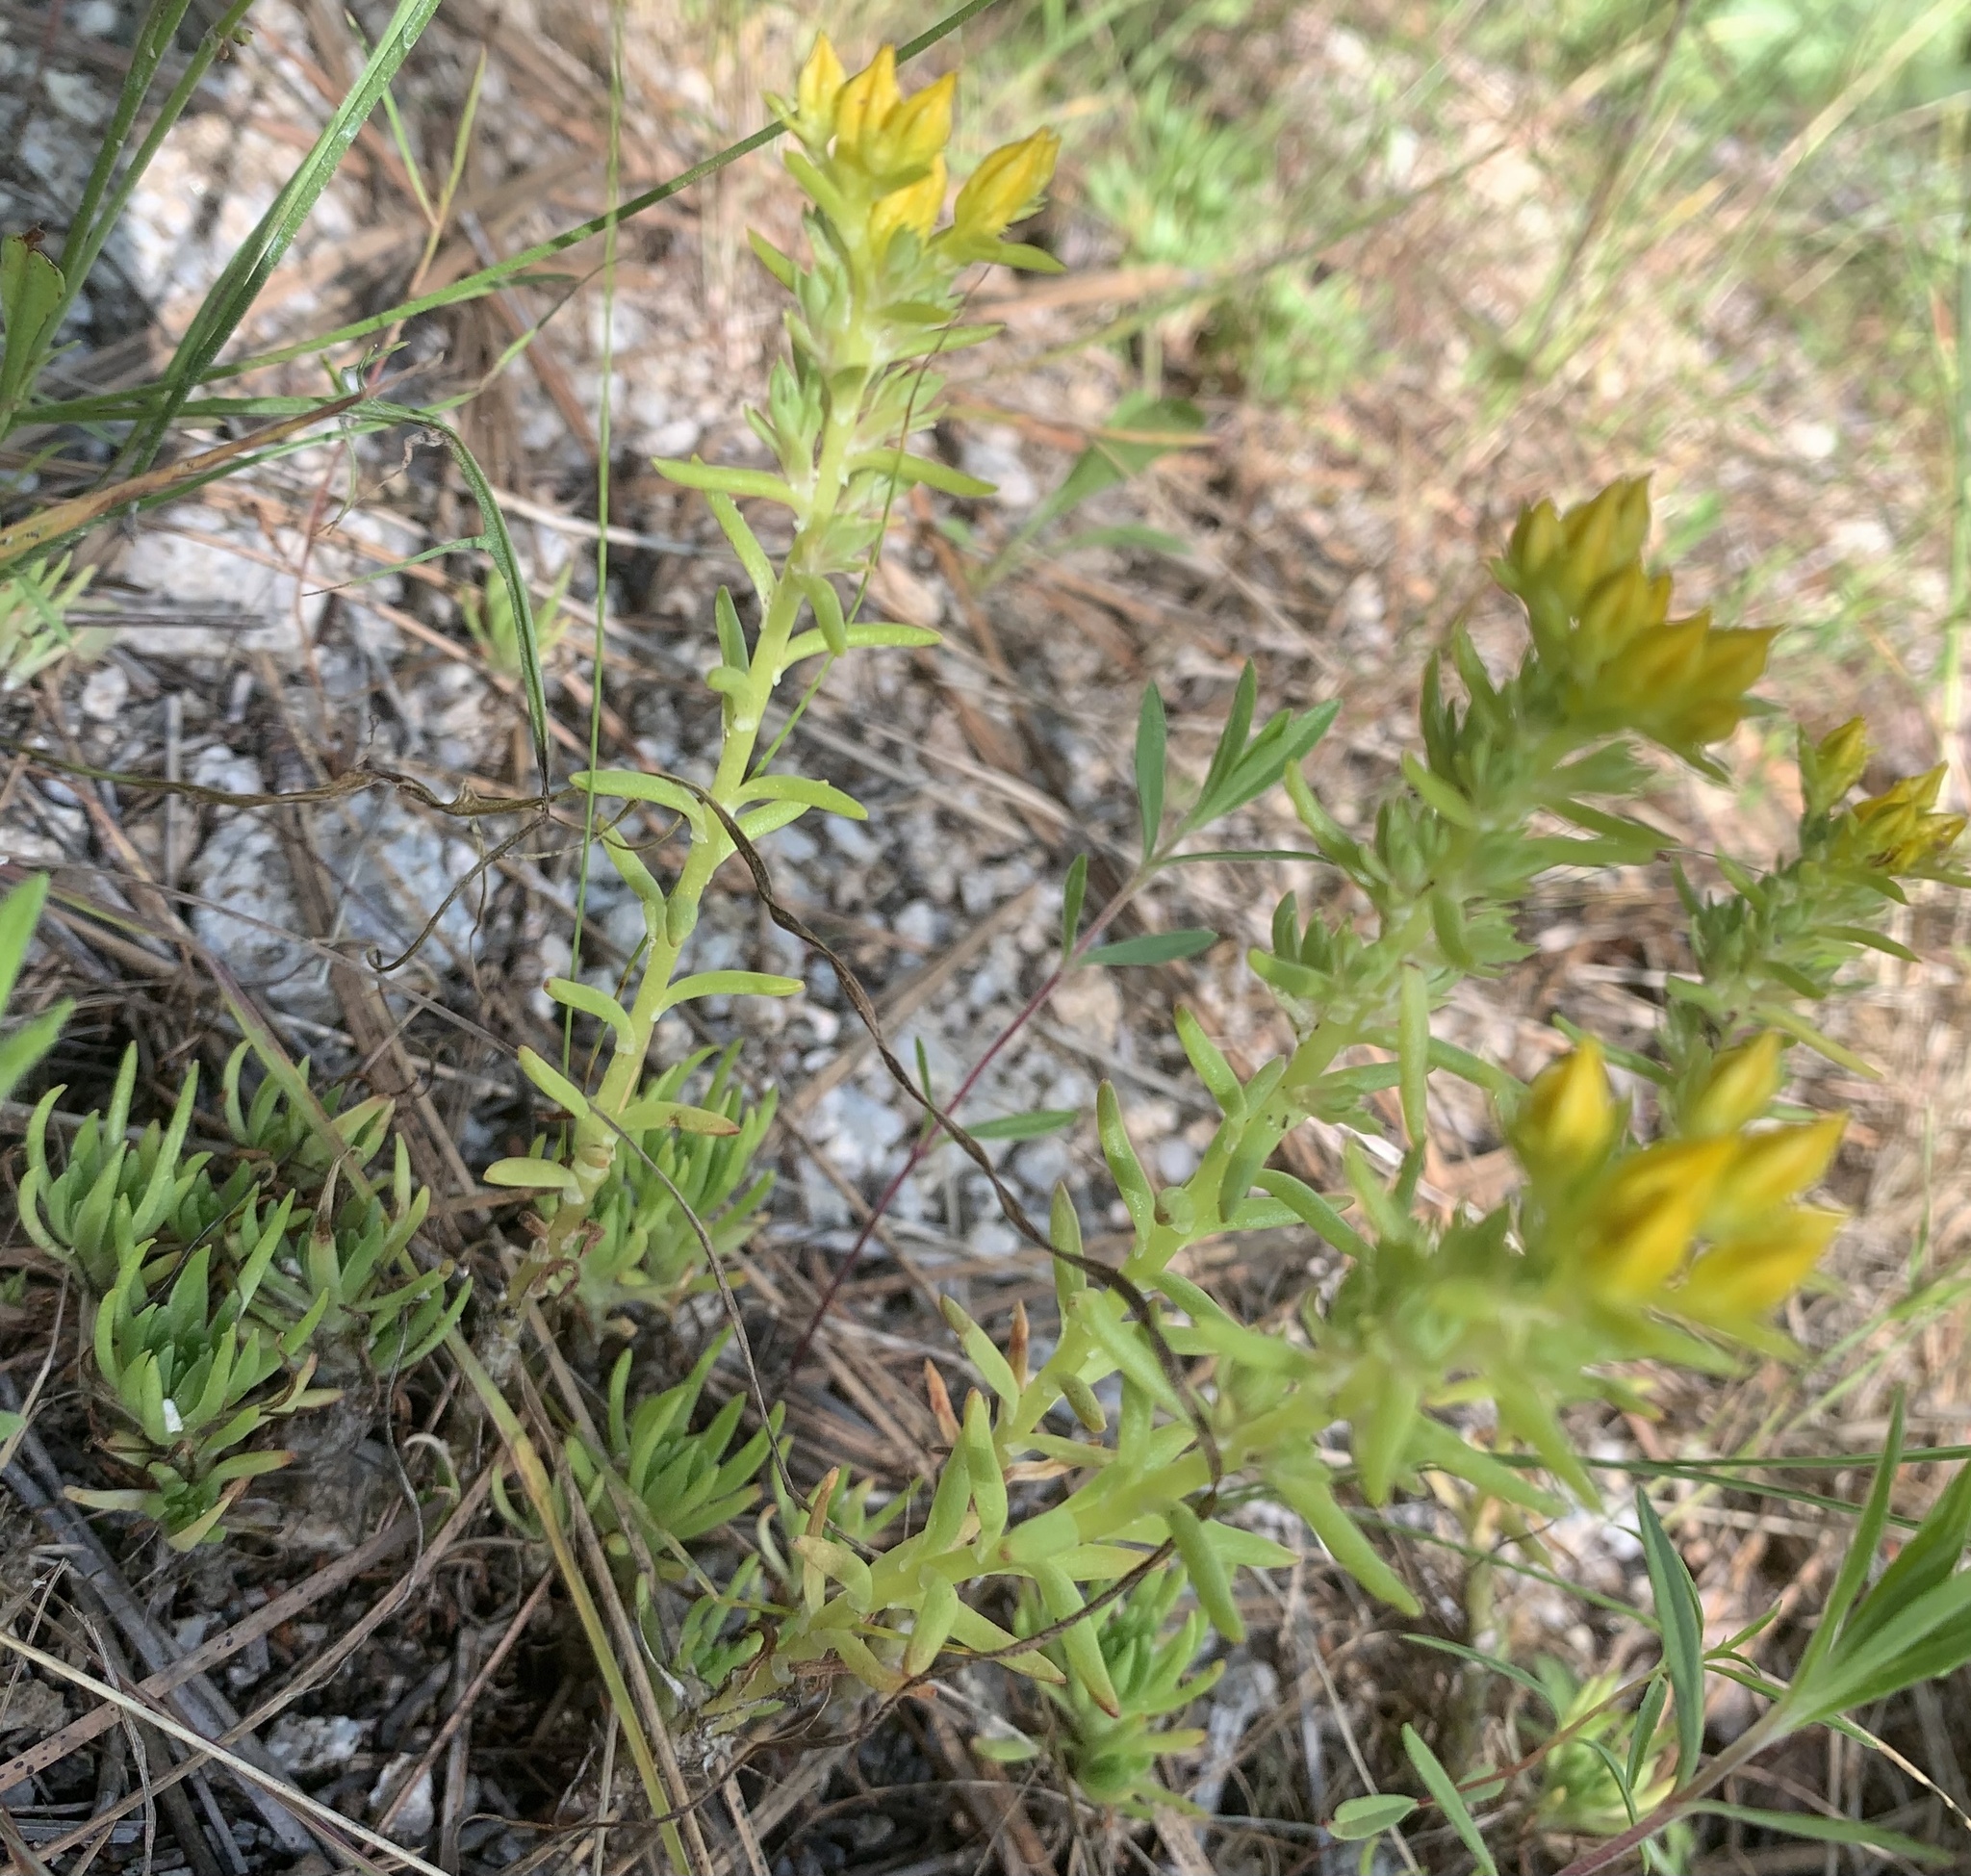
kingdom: Plantae
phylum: Tracheophyta
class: Magnoliopsida
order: Saxifragales
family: Crassulaceae
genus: Sedum
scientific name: Sedum stenopetalum
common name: Narrow-petaled stonecrop
